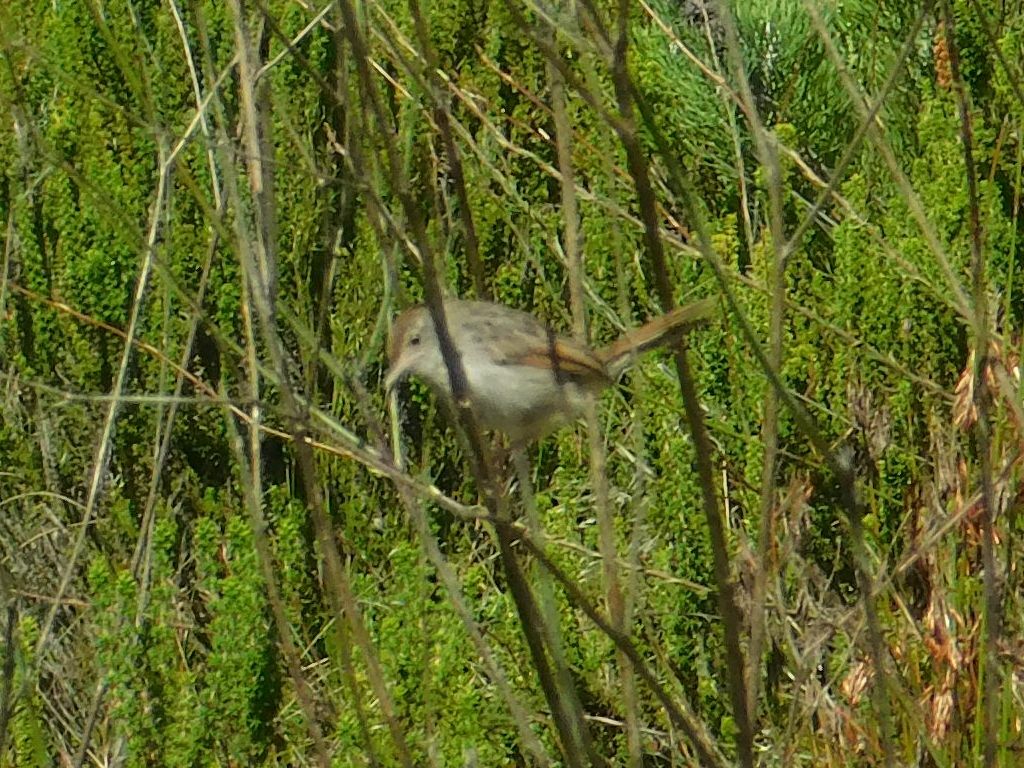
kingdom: Animalia
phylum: Chordata
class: Aves
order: Passeriformes
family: Cisticolidae
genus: Cisticola
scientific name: Cisticola subruficapilla
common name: Grey-backed cisticola
